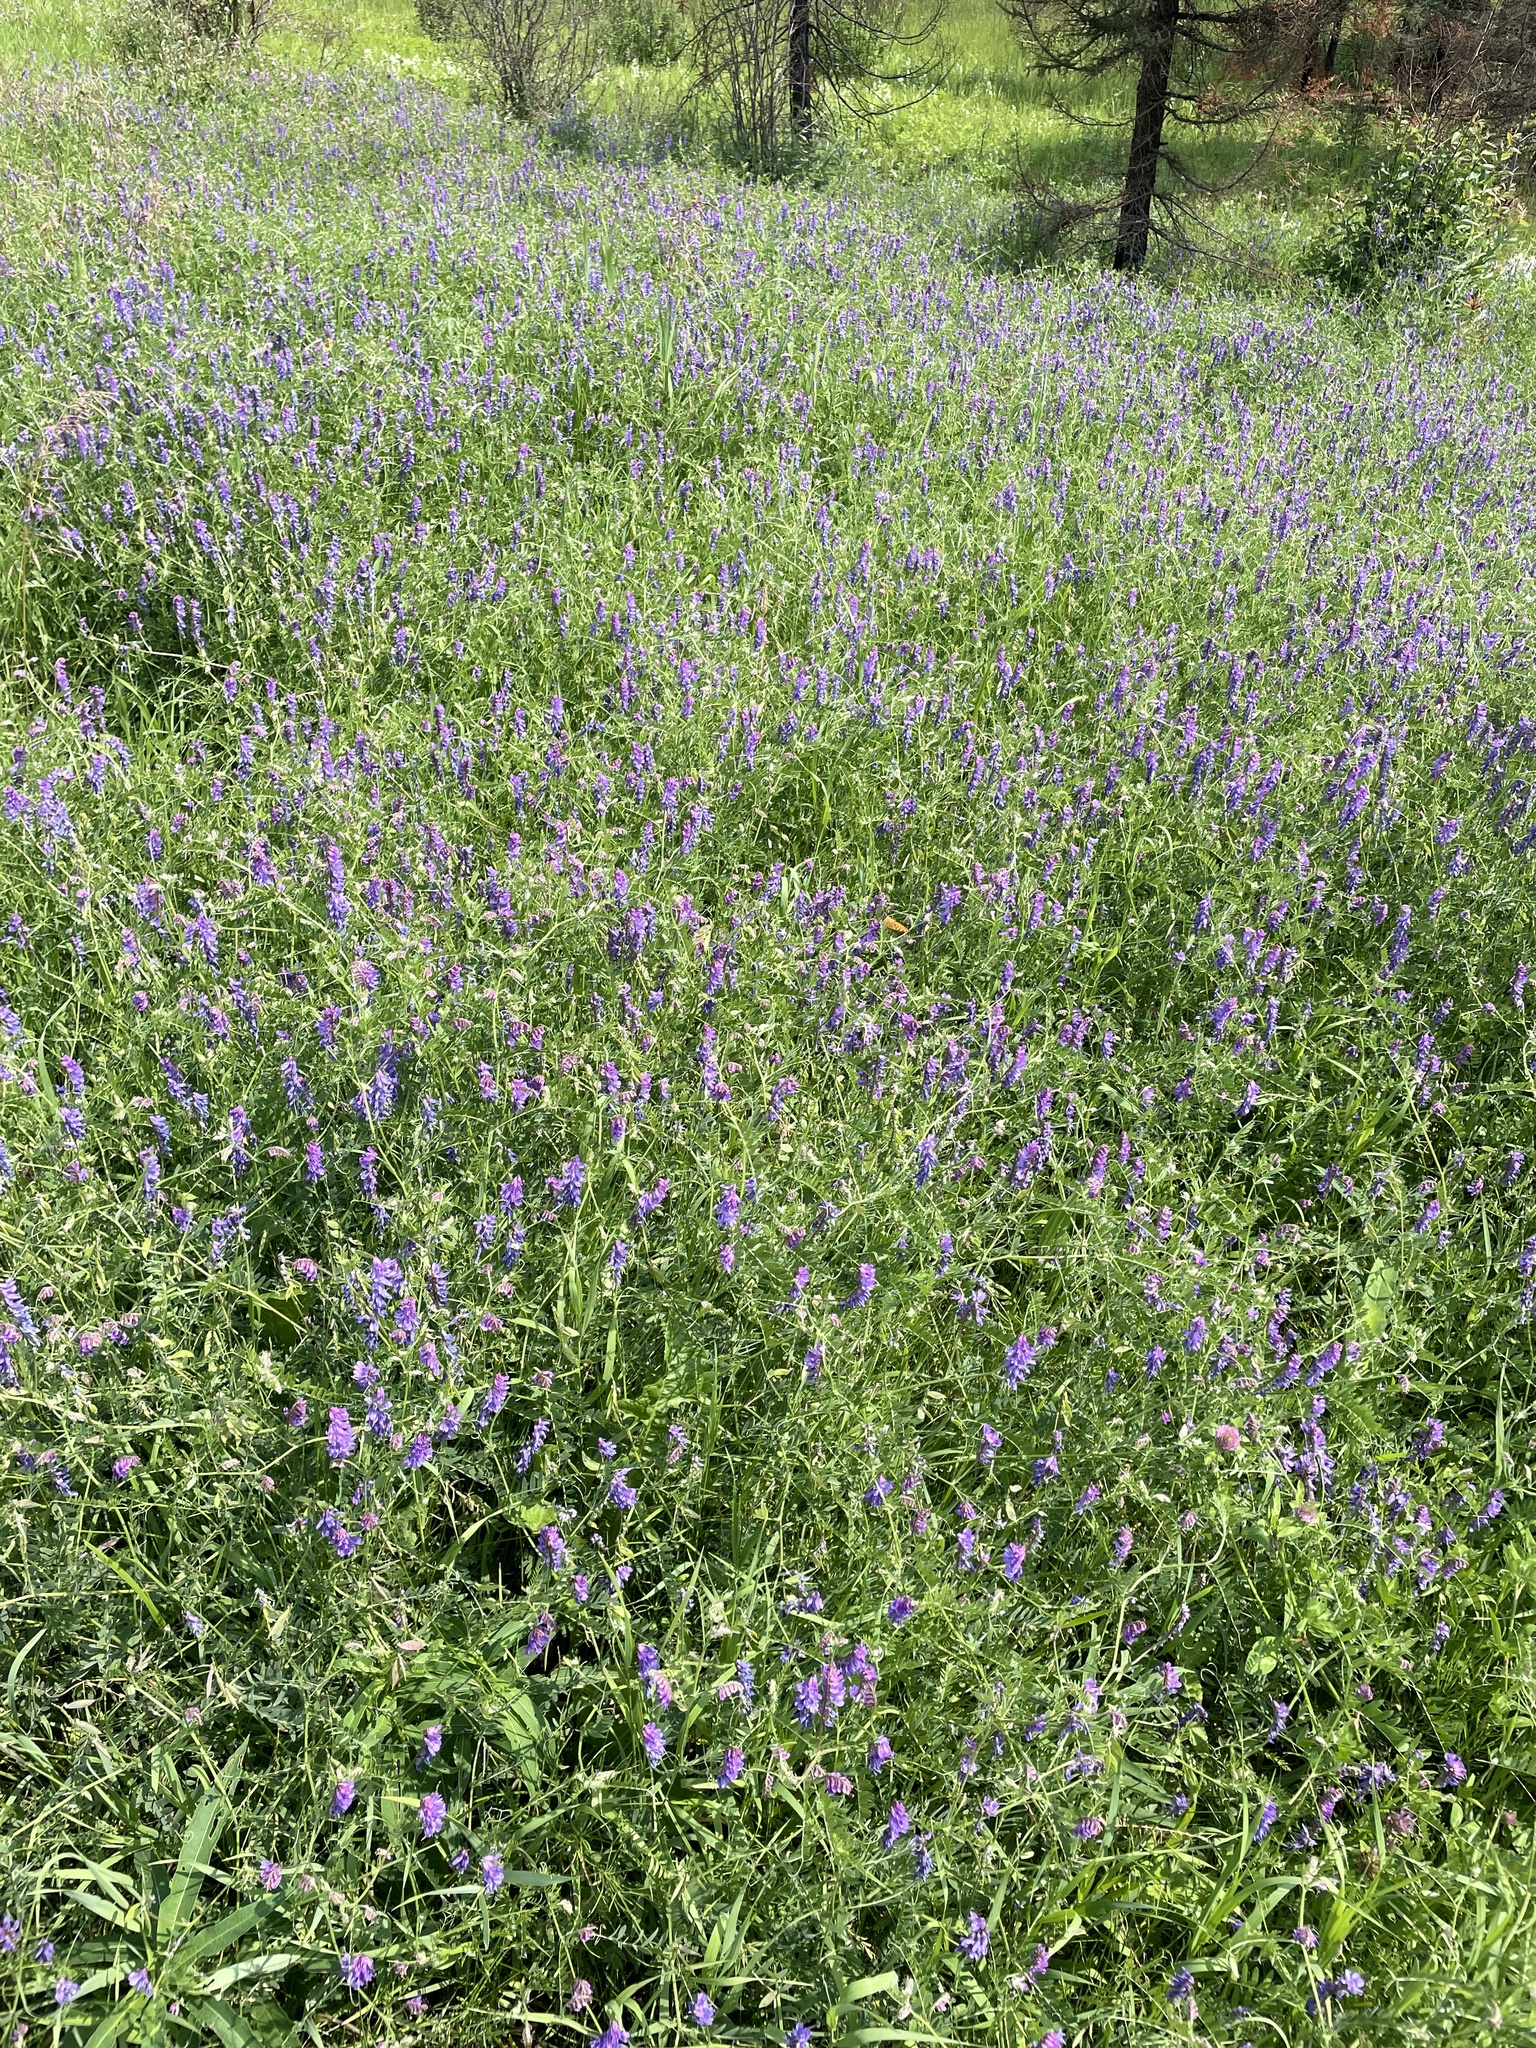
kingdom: Plantae
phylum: Tracheophyta
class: Magnoliopsida
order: Fabales
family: Fabaceae
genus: Vicia
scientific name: Vicia cracca
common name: Bird vetch
